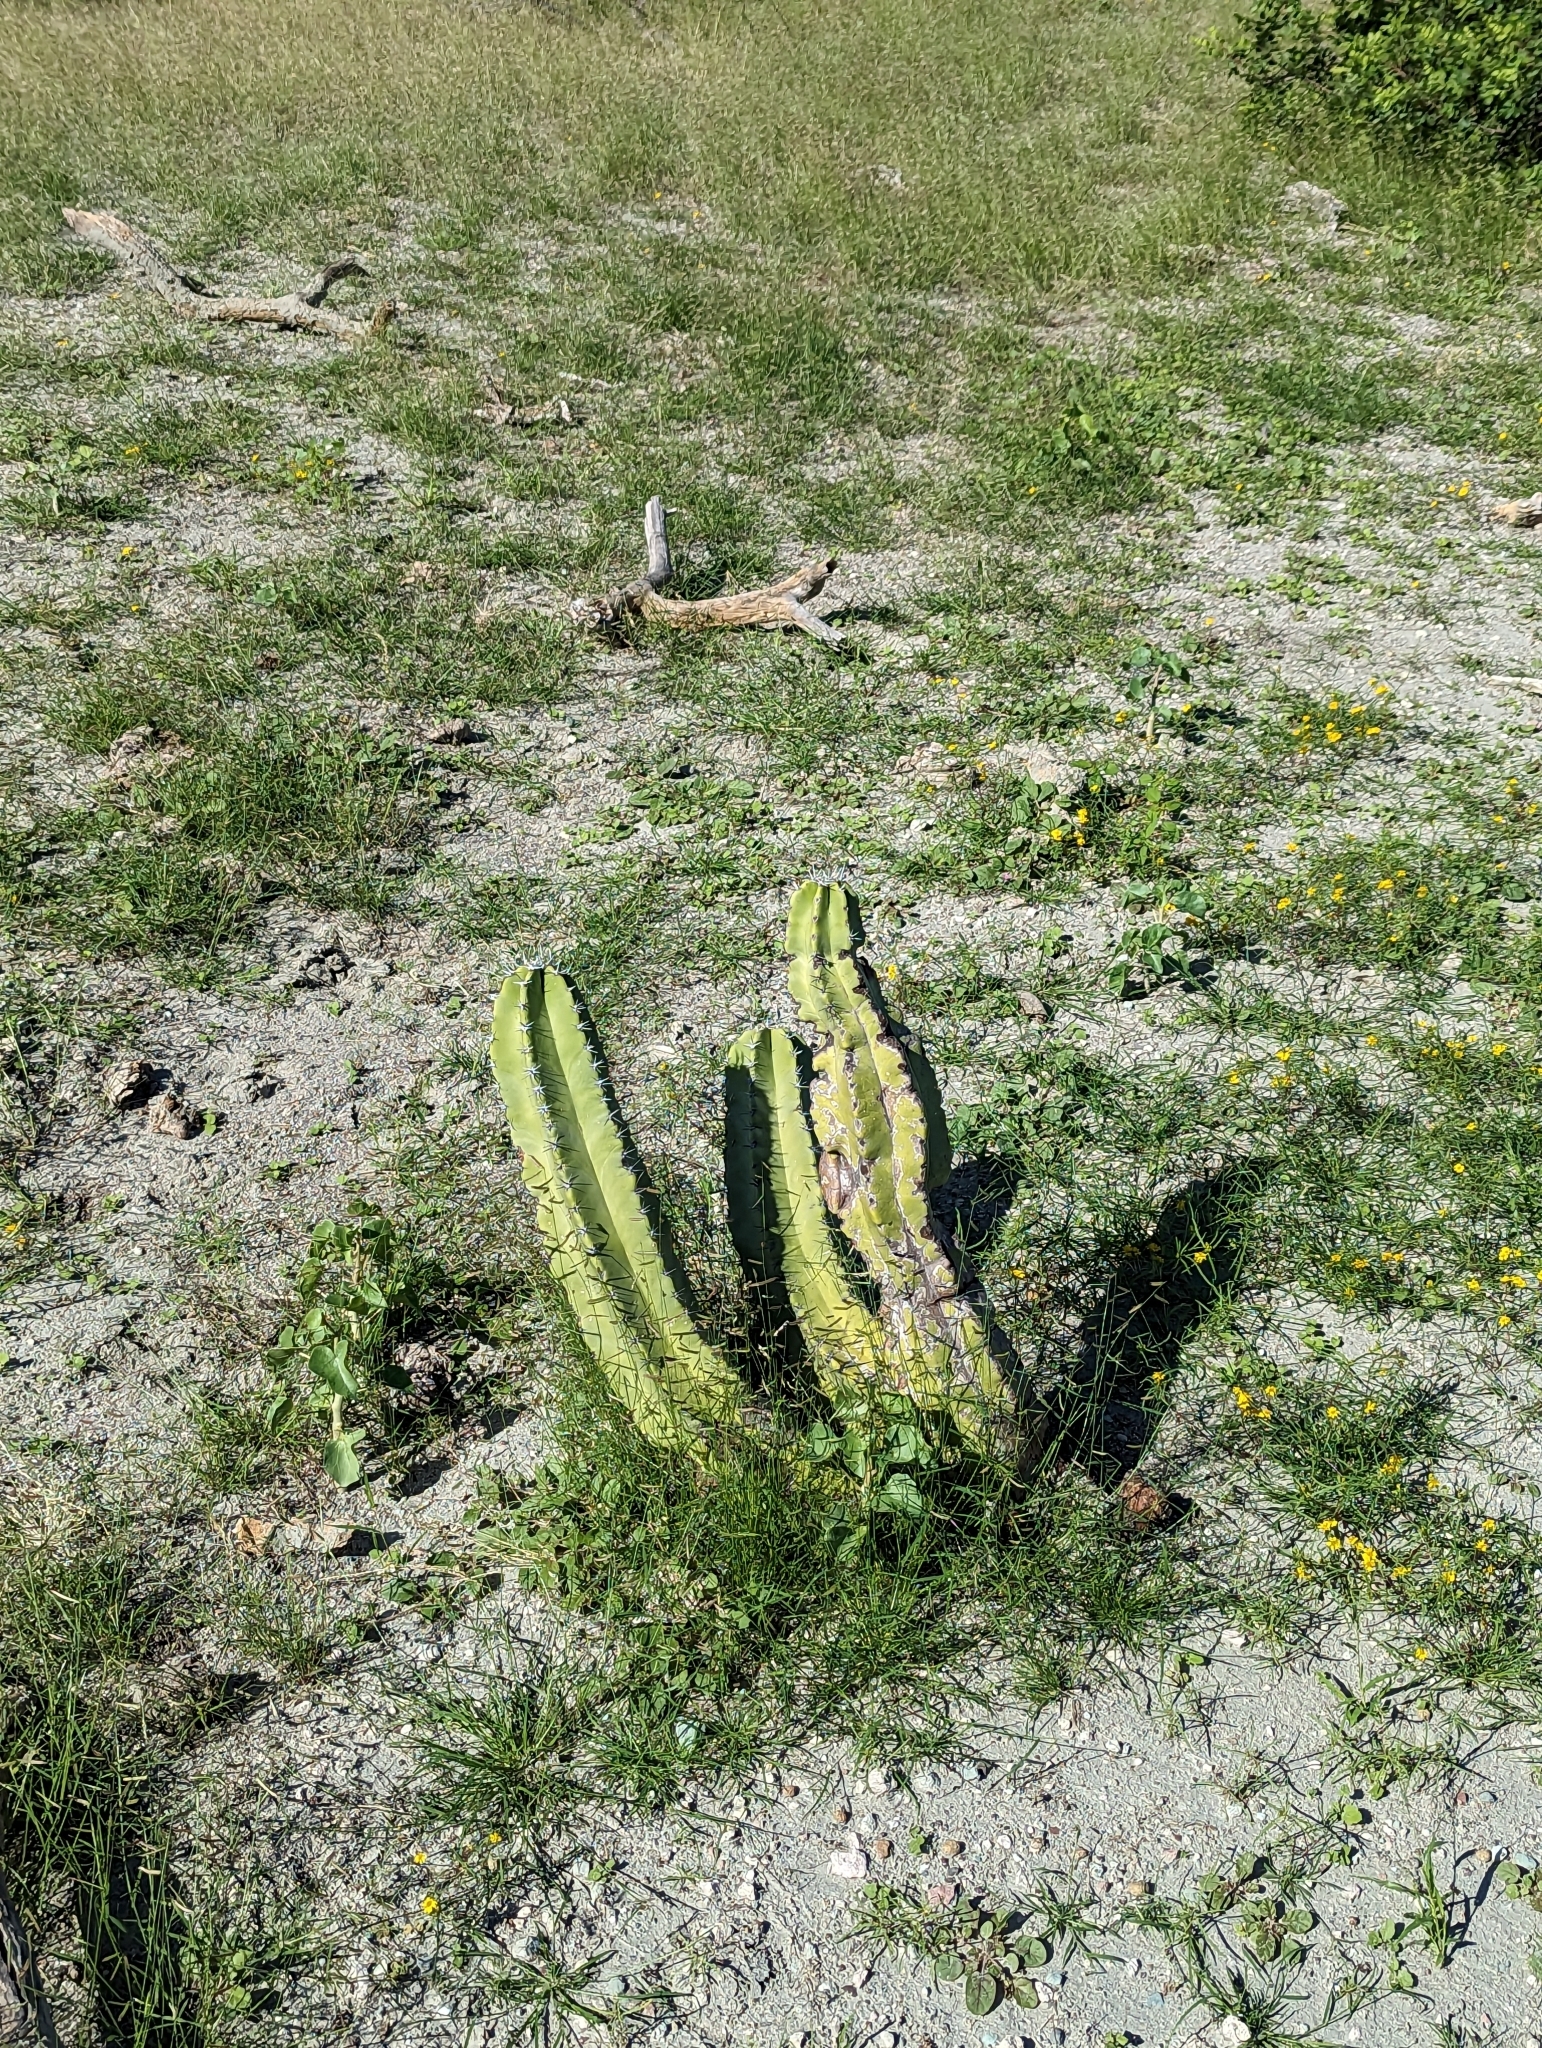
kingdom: Plantae
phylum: Tracheophyta
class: Magnoliopsida
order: Caryophyllales
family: Cactaceae
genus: Pachycereus
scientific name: Pachycereus schottii
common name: Senita cactus
